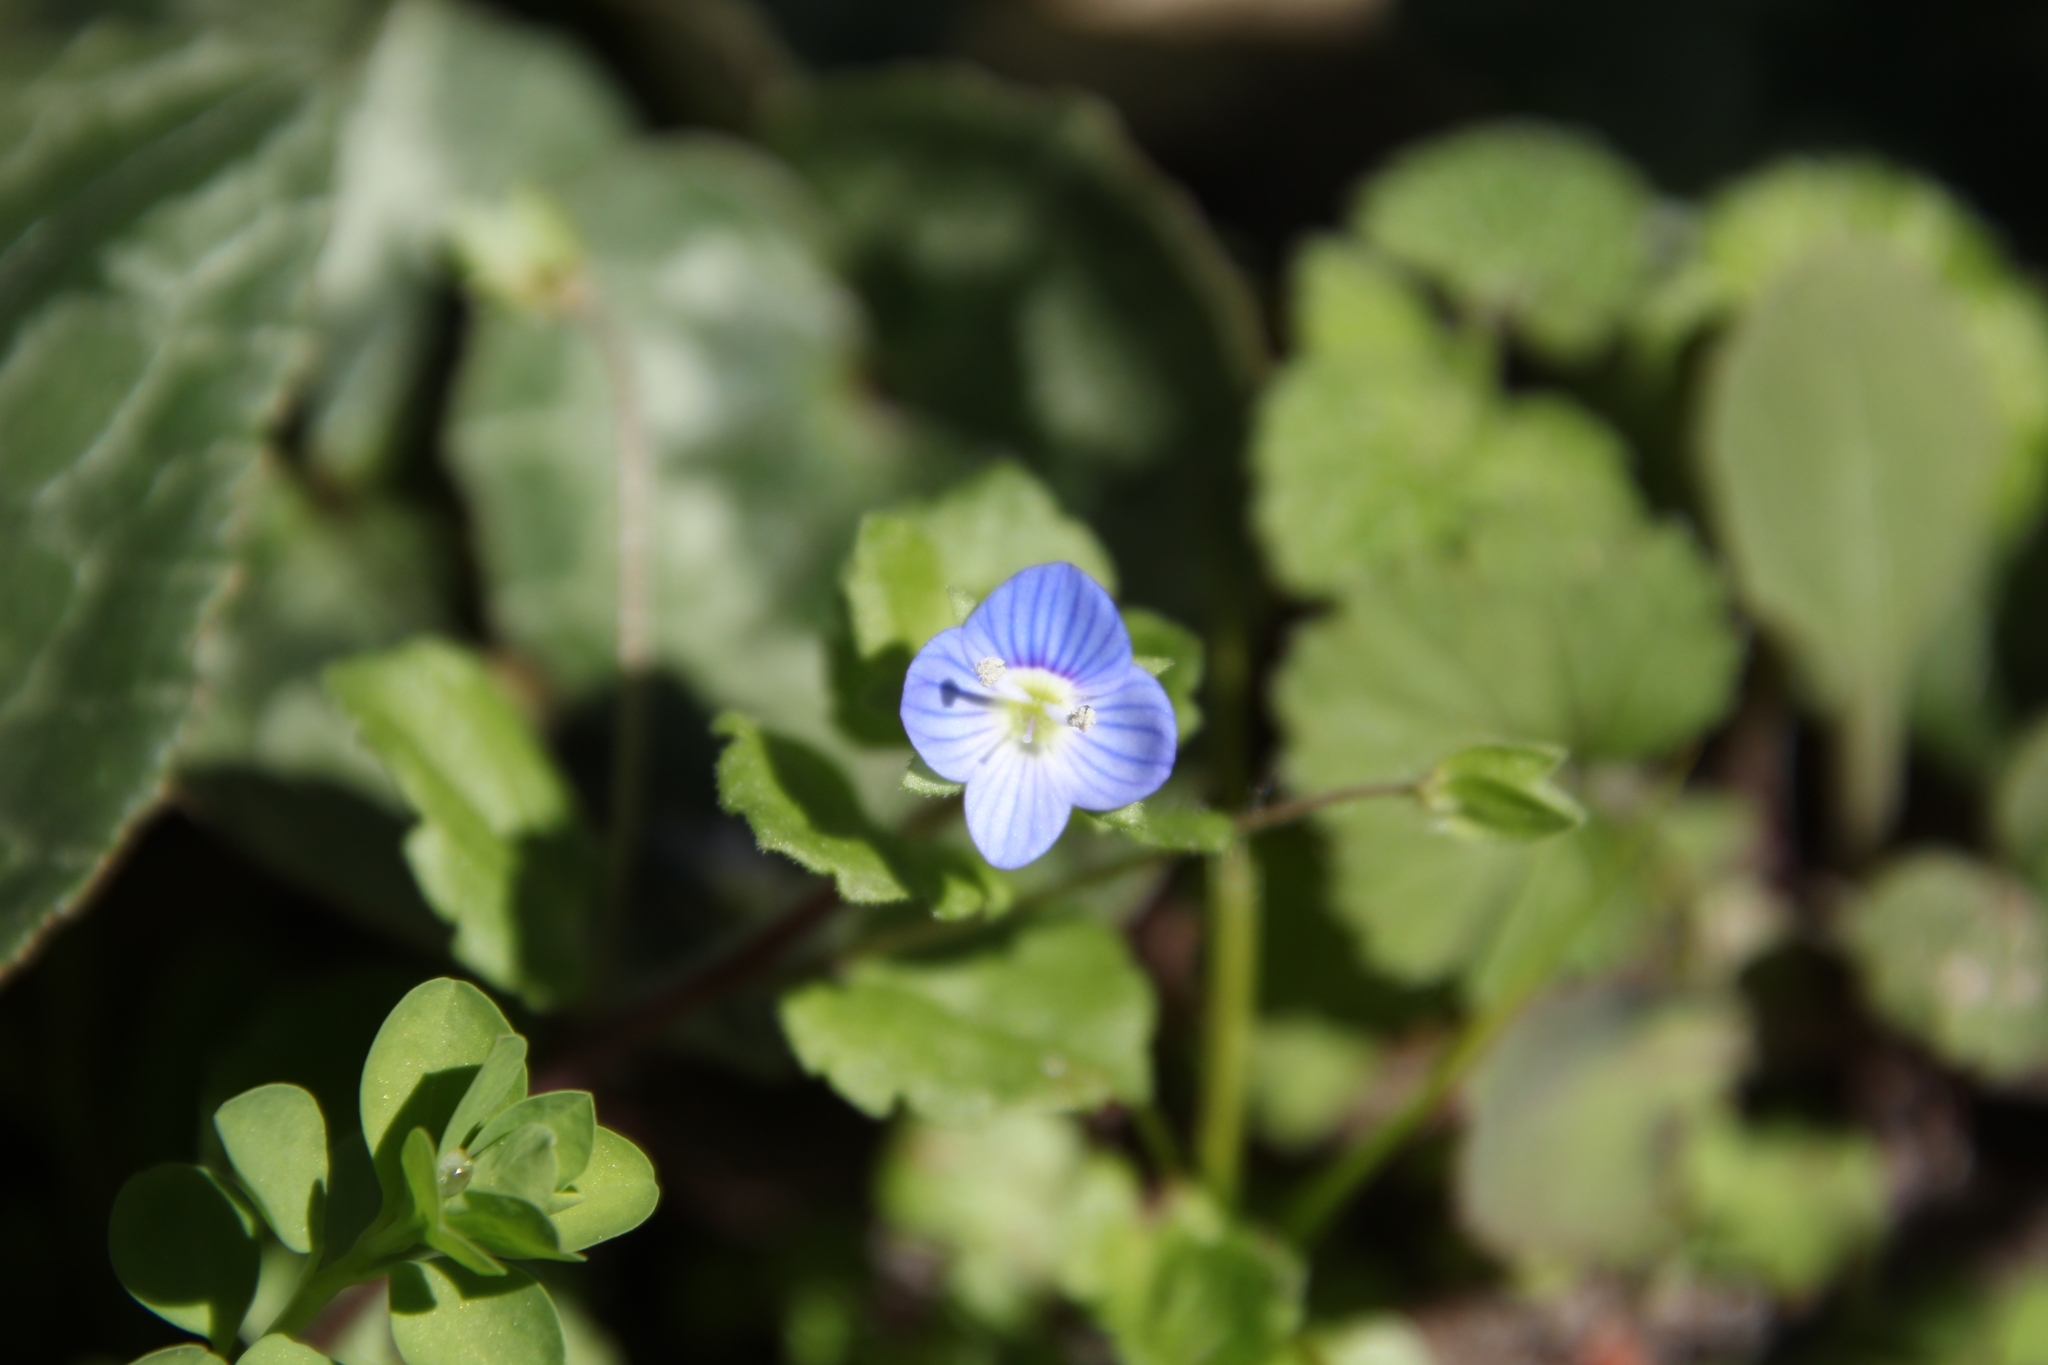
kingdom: Plantae
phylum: Tracheophyta
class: Magnoliopsida
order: Lamiales
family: Plantaginaceae
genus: Veronica
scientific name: Veronica persica
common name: Common field-speedwell
